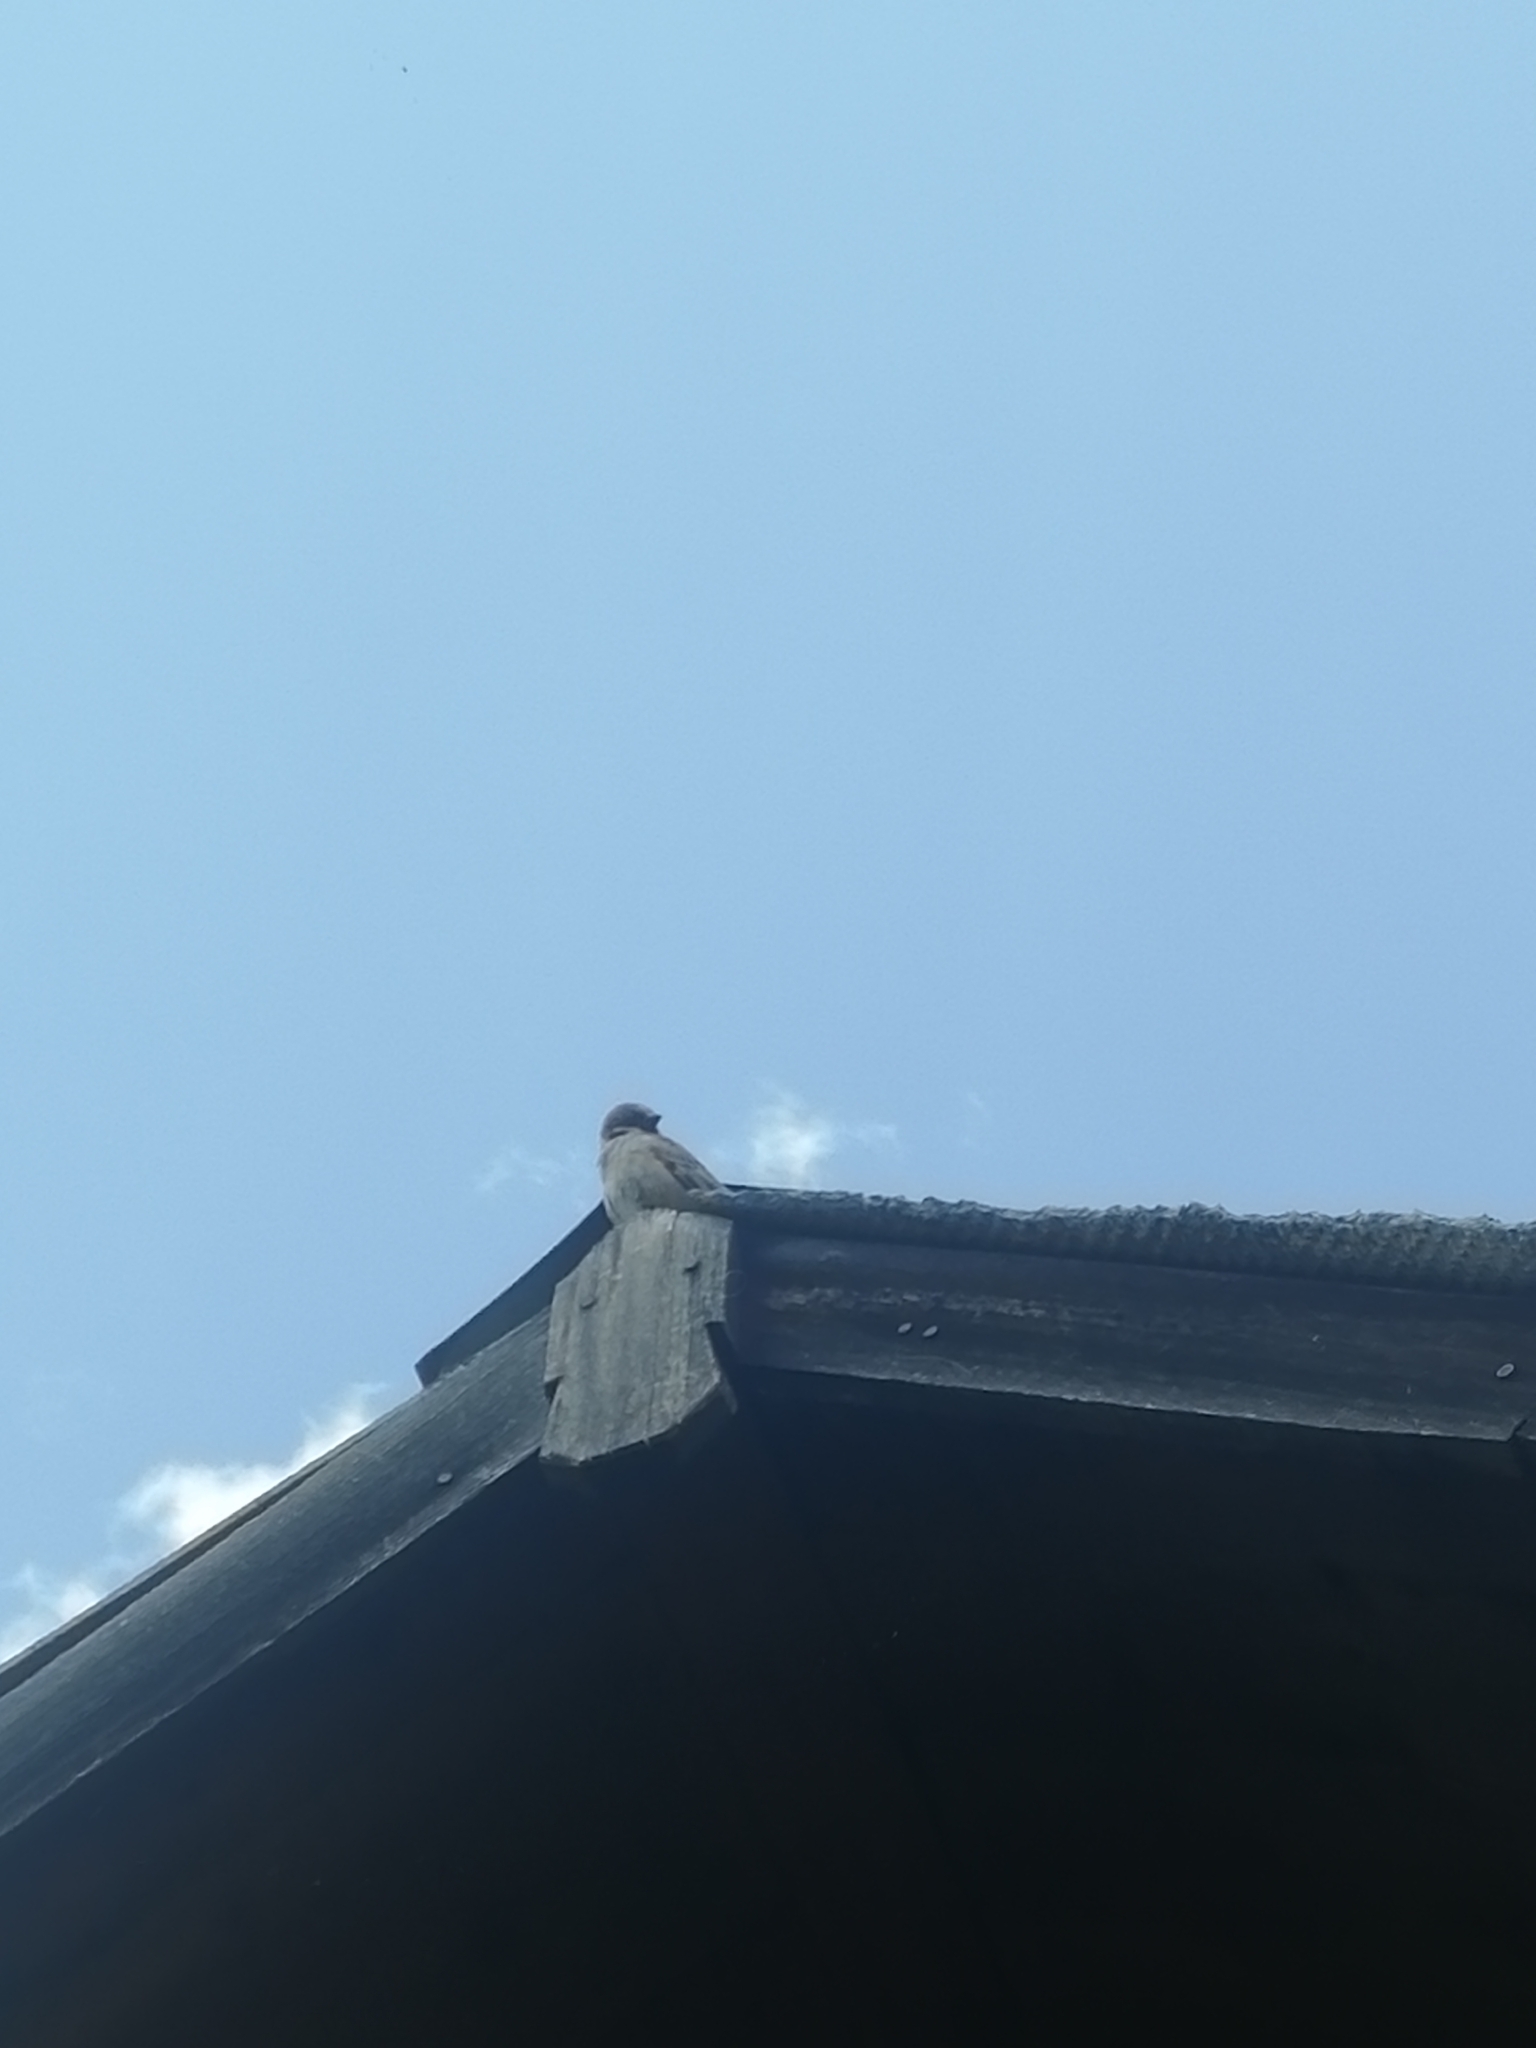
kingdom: Animalia
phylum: Chordata
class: Aves
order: Passeriformes
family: Passeridae
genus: Passer
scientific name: Passer montanus
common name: Eurasian tree sparrow
